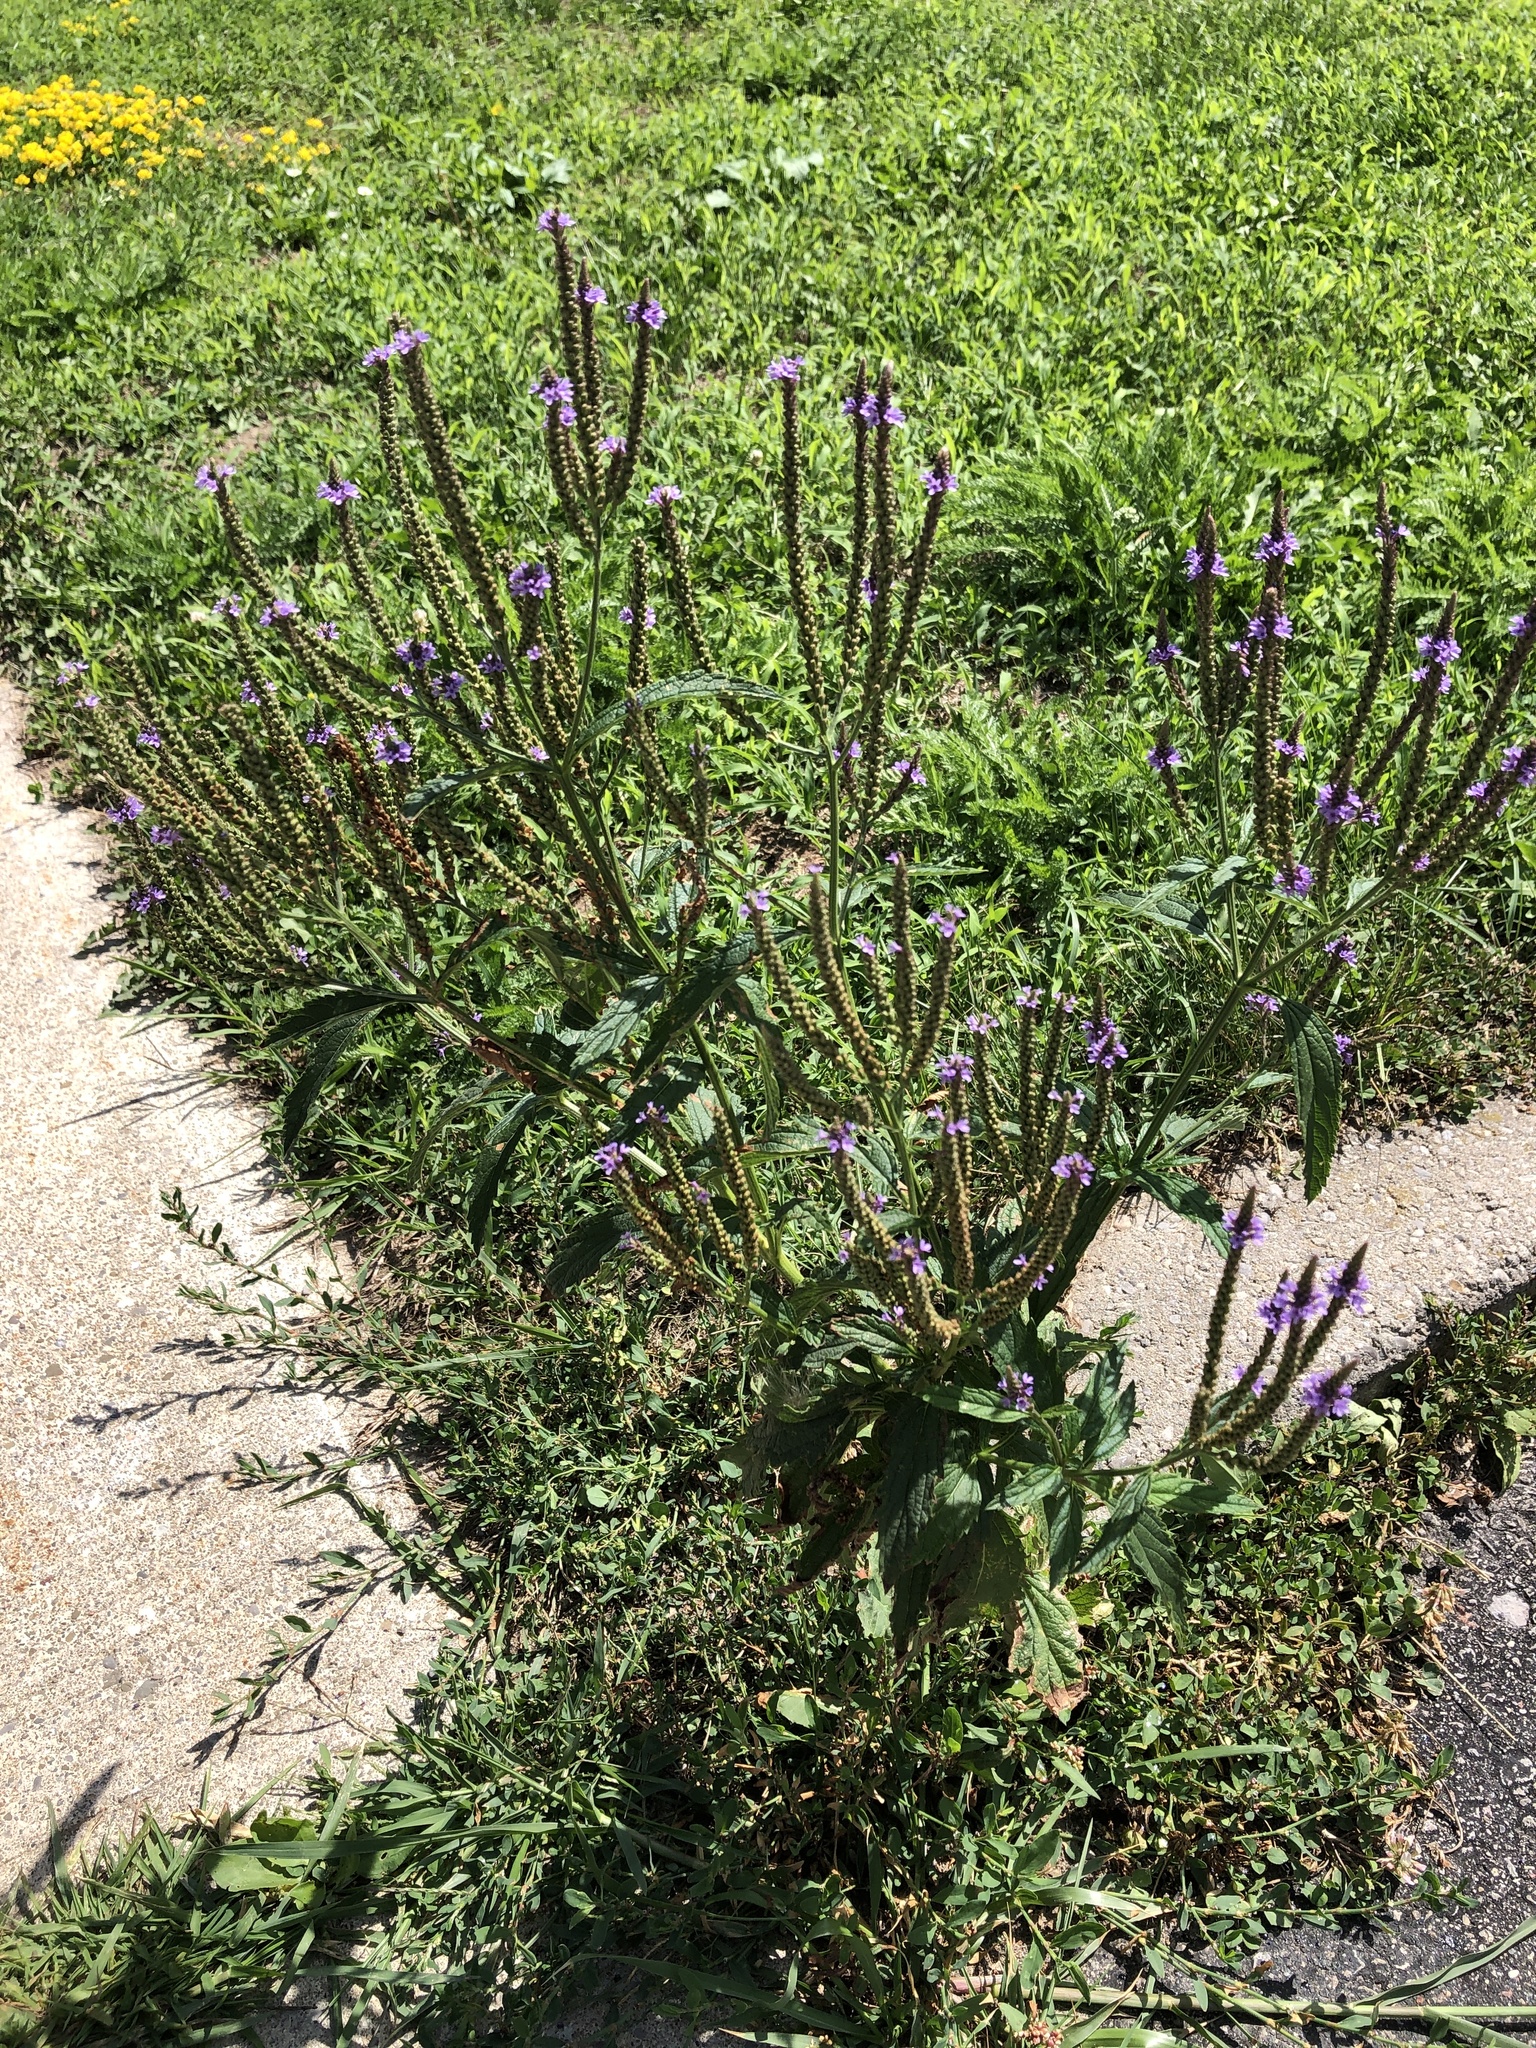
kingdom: Plantae
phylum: Tracheophyta
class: Magnoliopsida
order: Lamiales
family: Verbenaceae
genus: Verbena
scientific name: Verbena hastata
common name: American blue vervain
